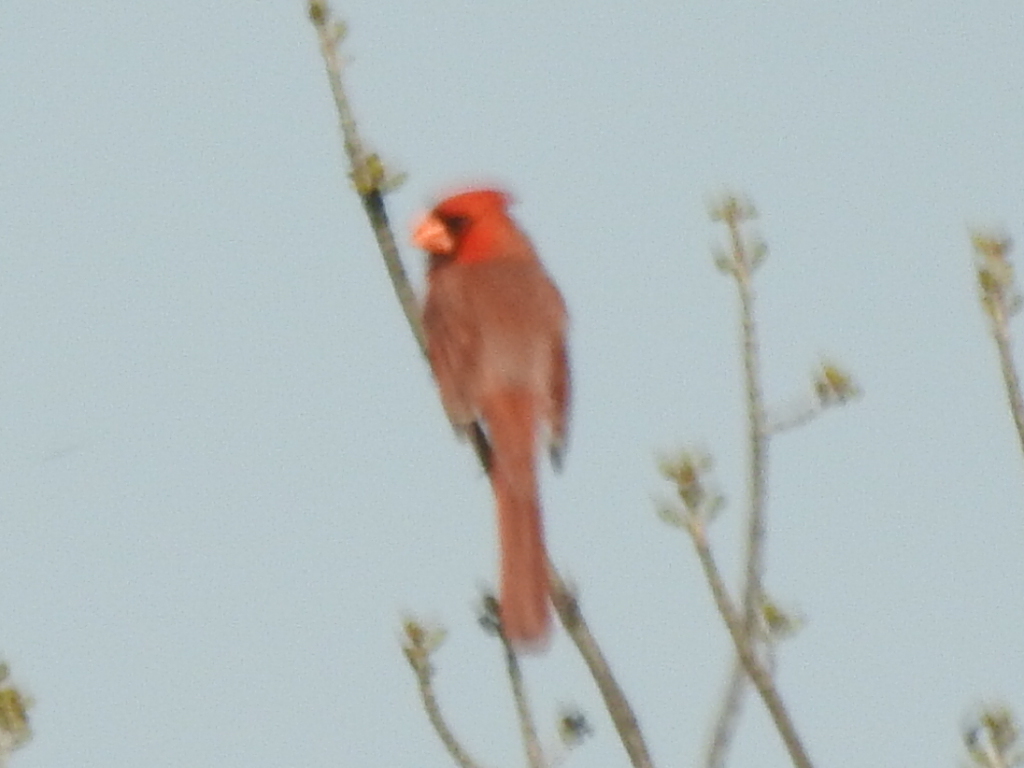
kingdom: Animalia
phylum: Chordata
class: Aves
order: Passeriformes
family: Cardinalidae
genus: Cardinalis
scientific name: Cardinalis cardinalis
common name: Northern cardinal
